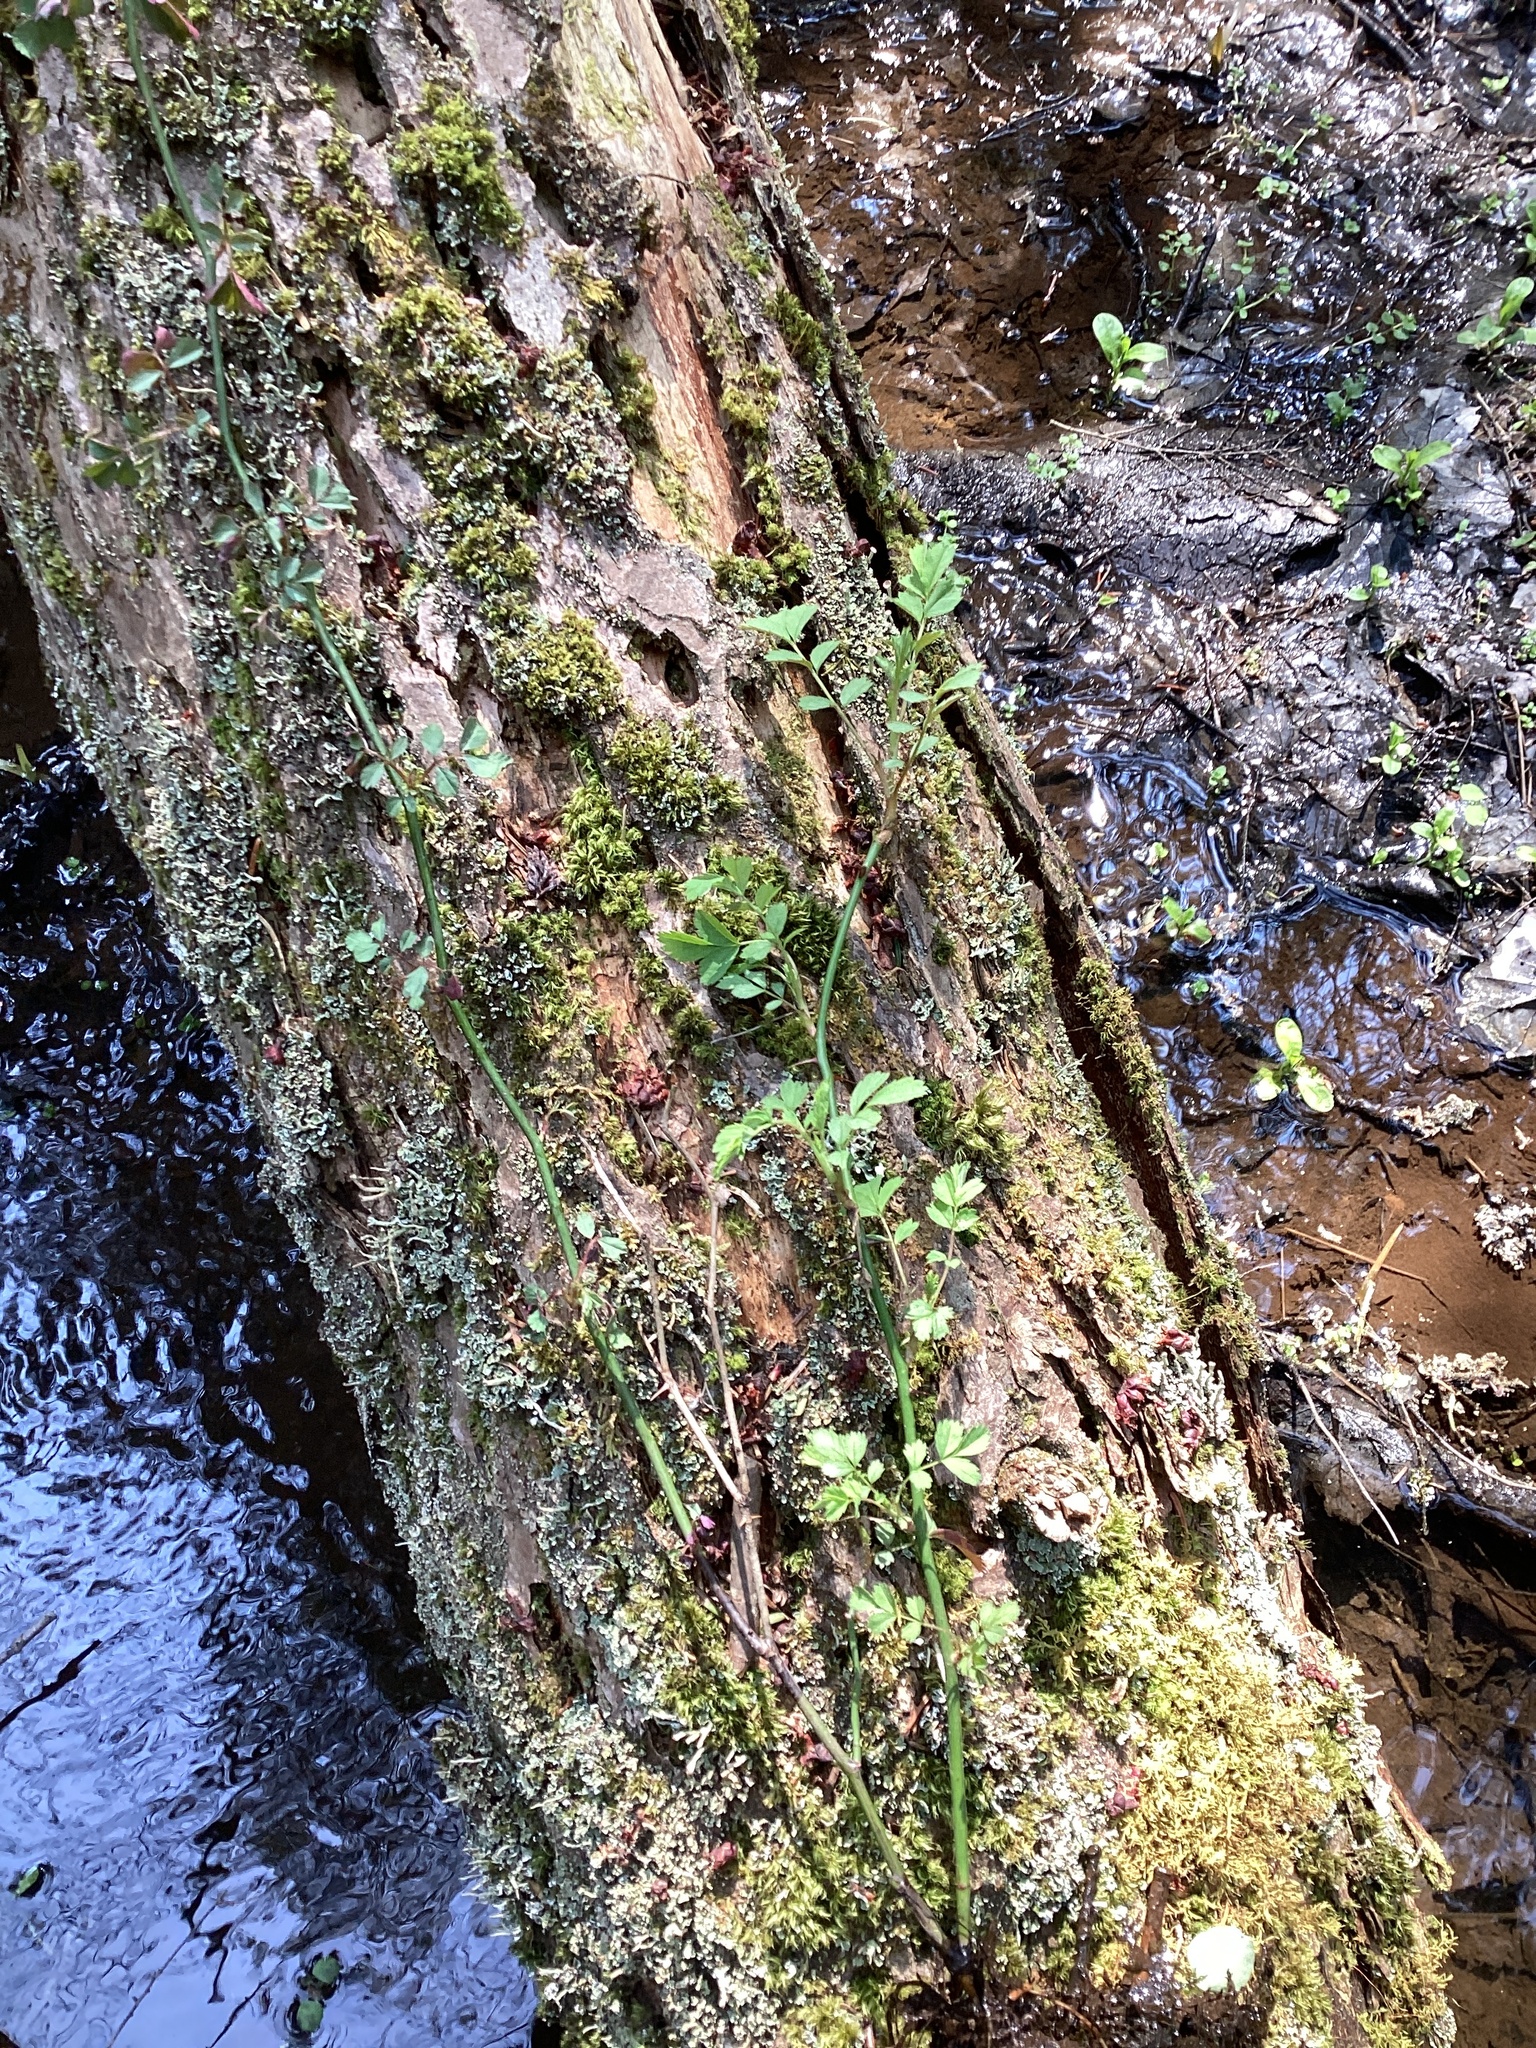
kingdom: Plantae
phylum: Tracheophyta
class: Magnoliopsida
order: Rosales
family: Rosaceae
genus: Rosa
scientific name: Rosa multiflora
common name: Multiflora rose
